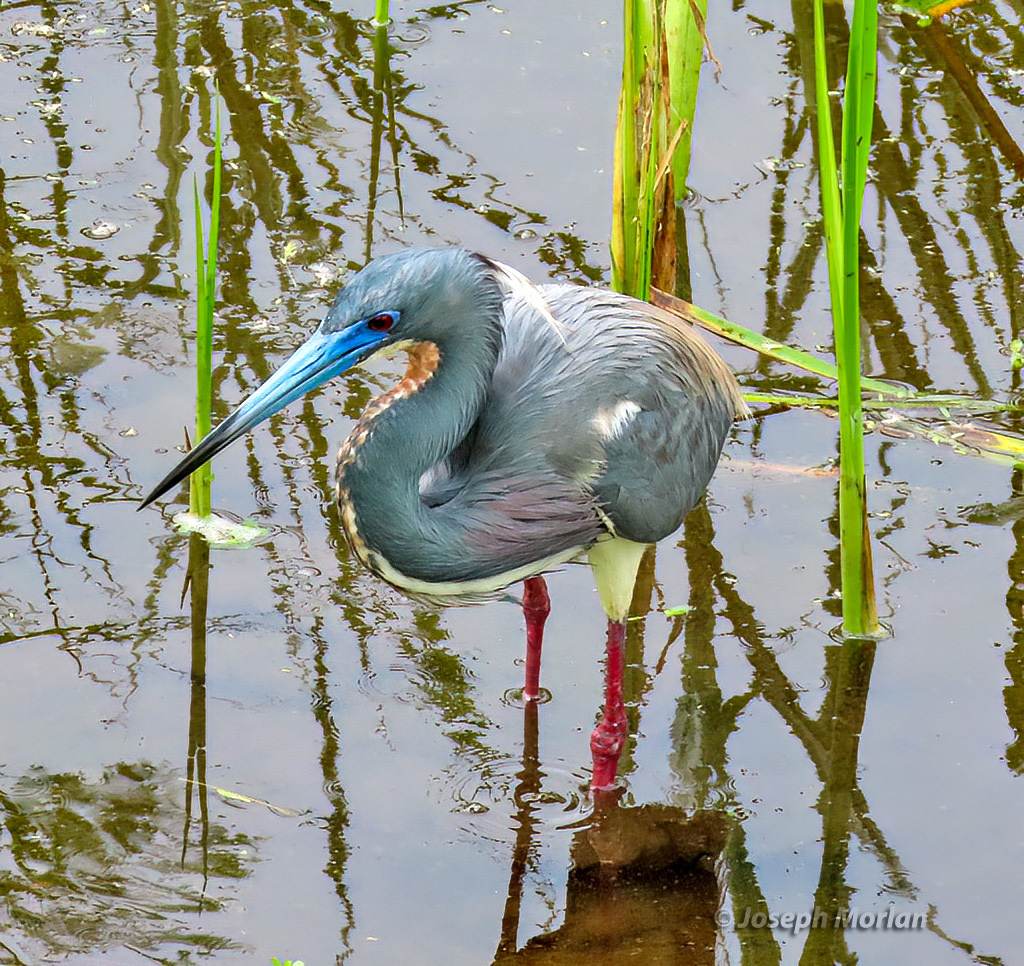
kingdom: Animalia
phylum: Chordata
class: Aves
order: Pelecaniformes
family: Ardeidae
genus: Egretta
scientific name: Egretta tricolor
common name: Tricolored heron
